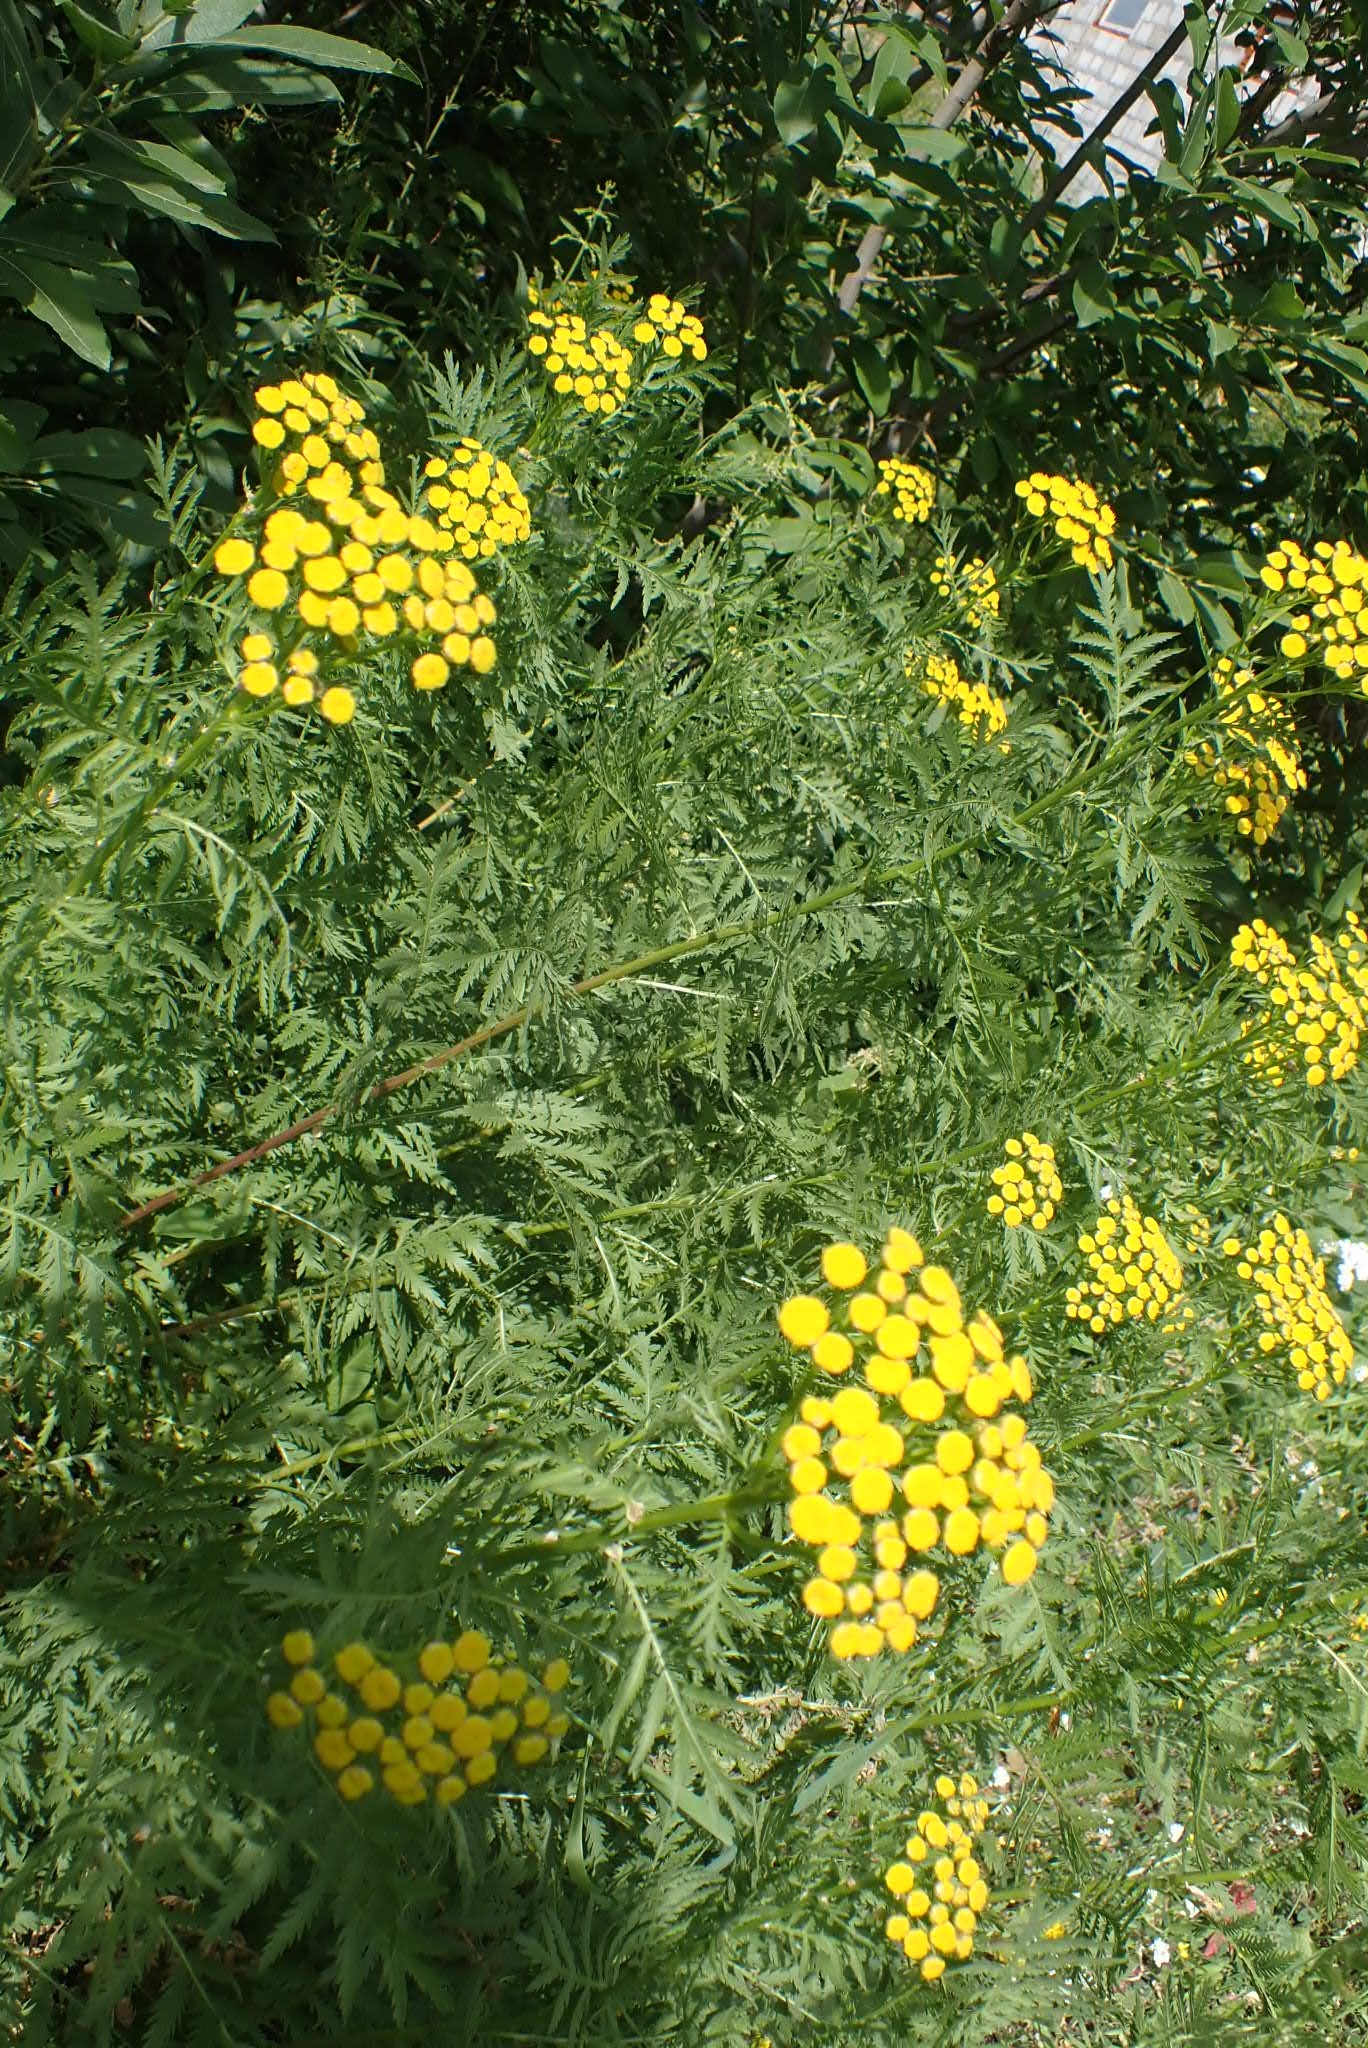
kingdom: Plantae
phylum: Tracheophyta
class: Magnoliopsida
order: Asterales
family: Asteraceae
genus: Tanacetum
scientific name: Tanacetum vulgare
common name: Common tansy
